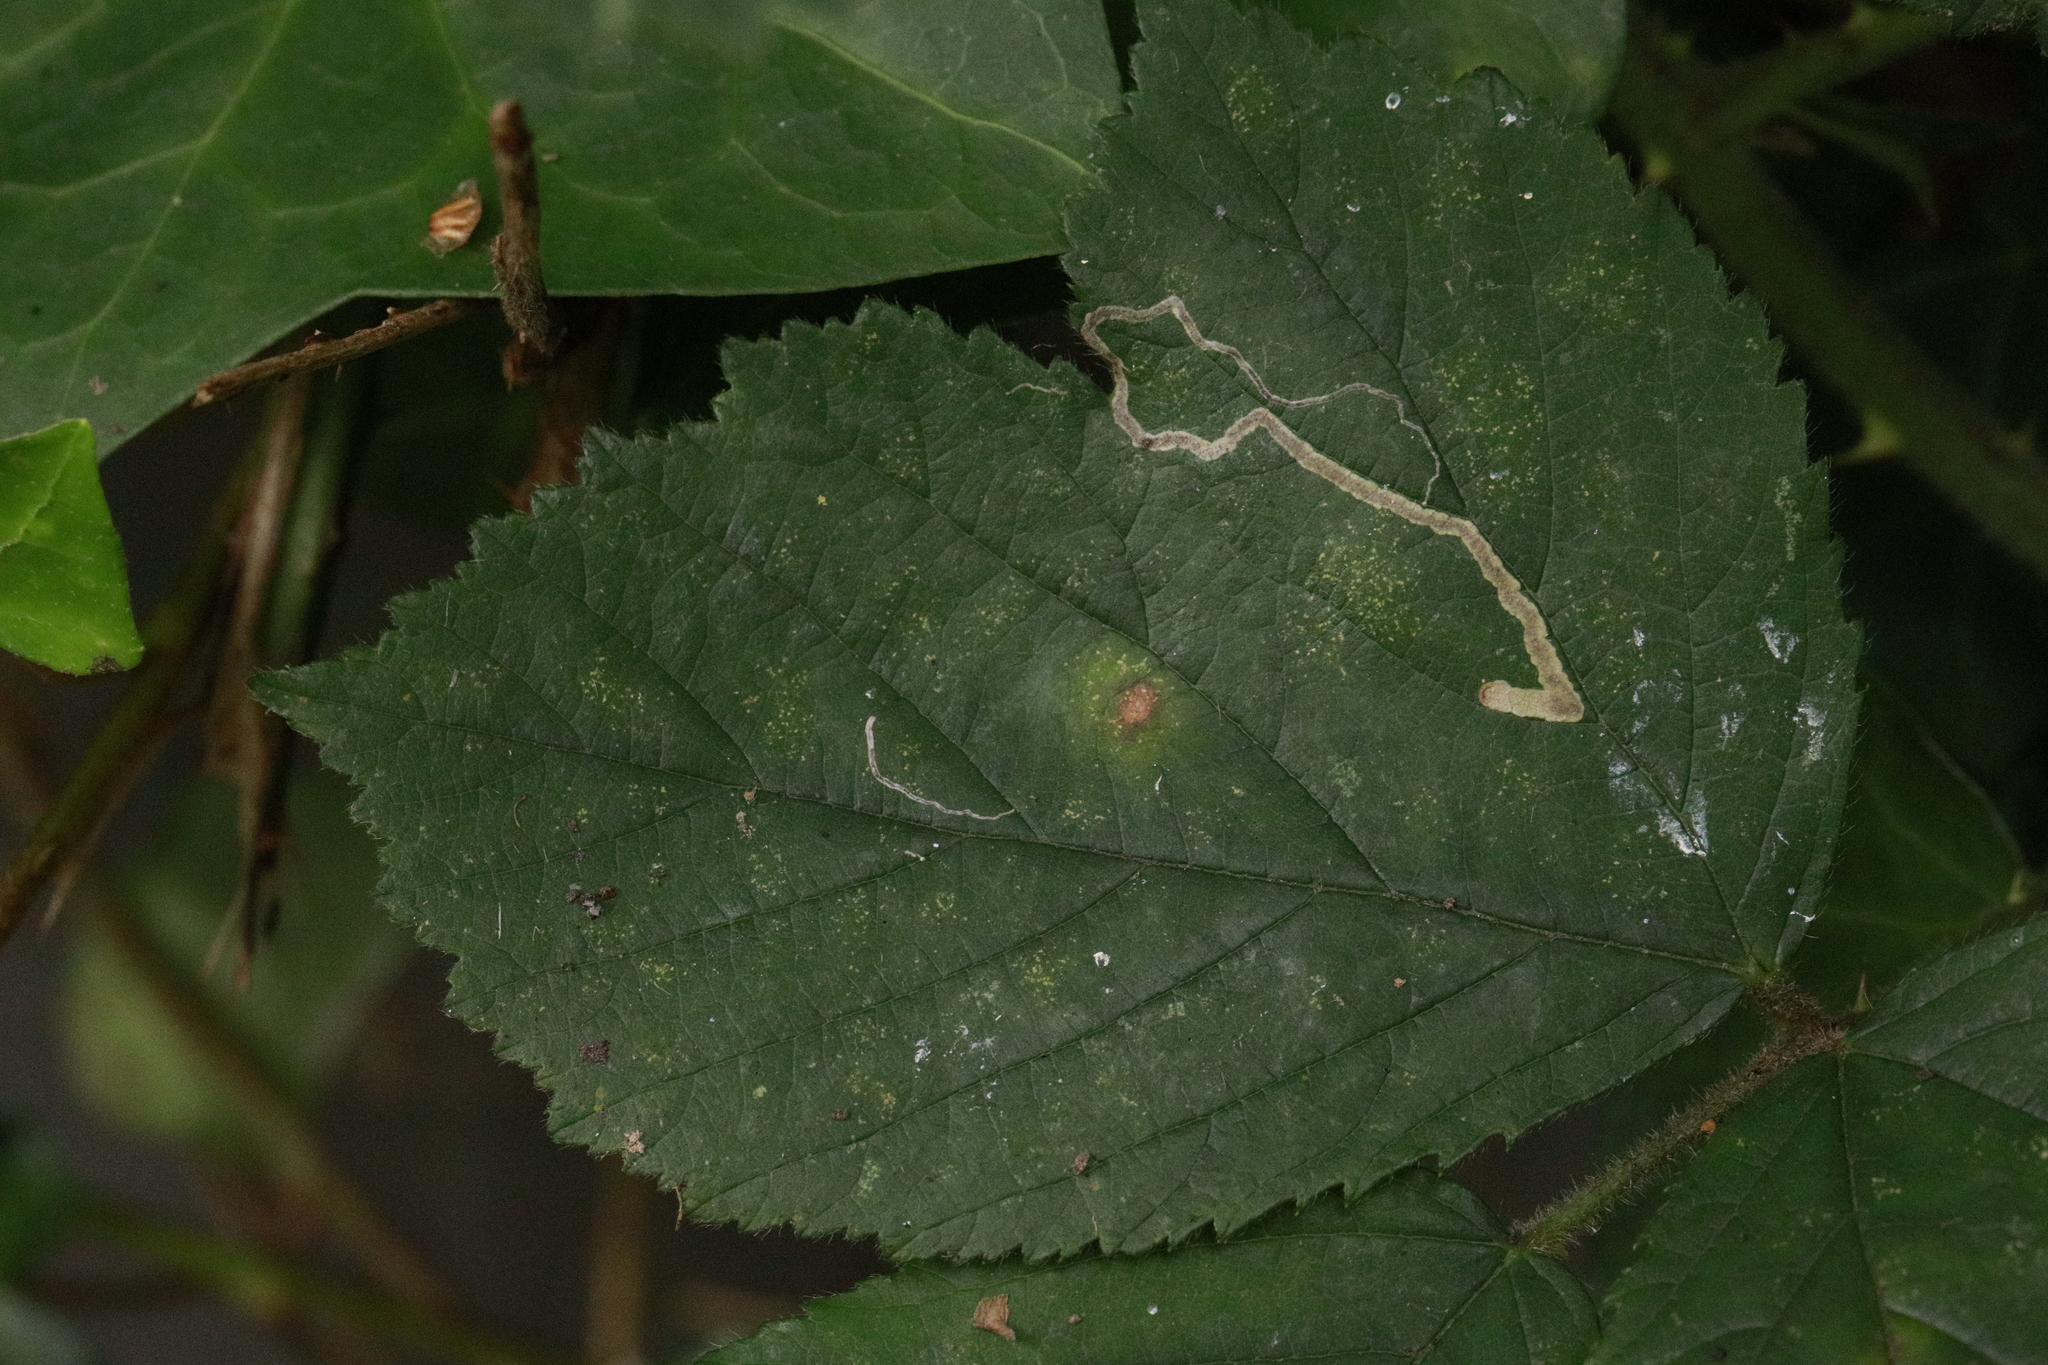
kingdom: Animalia
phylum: Arthropoda
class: Insecta
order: Lepidoptera
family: Nepticulidae
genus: Stigmella
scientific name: Stigmella aurella
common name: Golden pigmy
